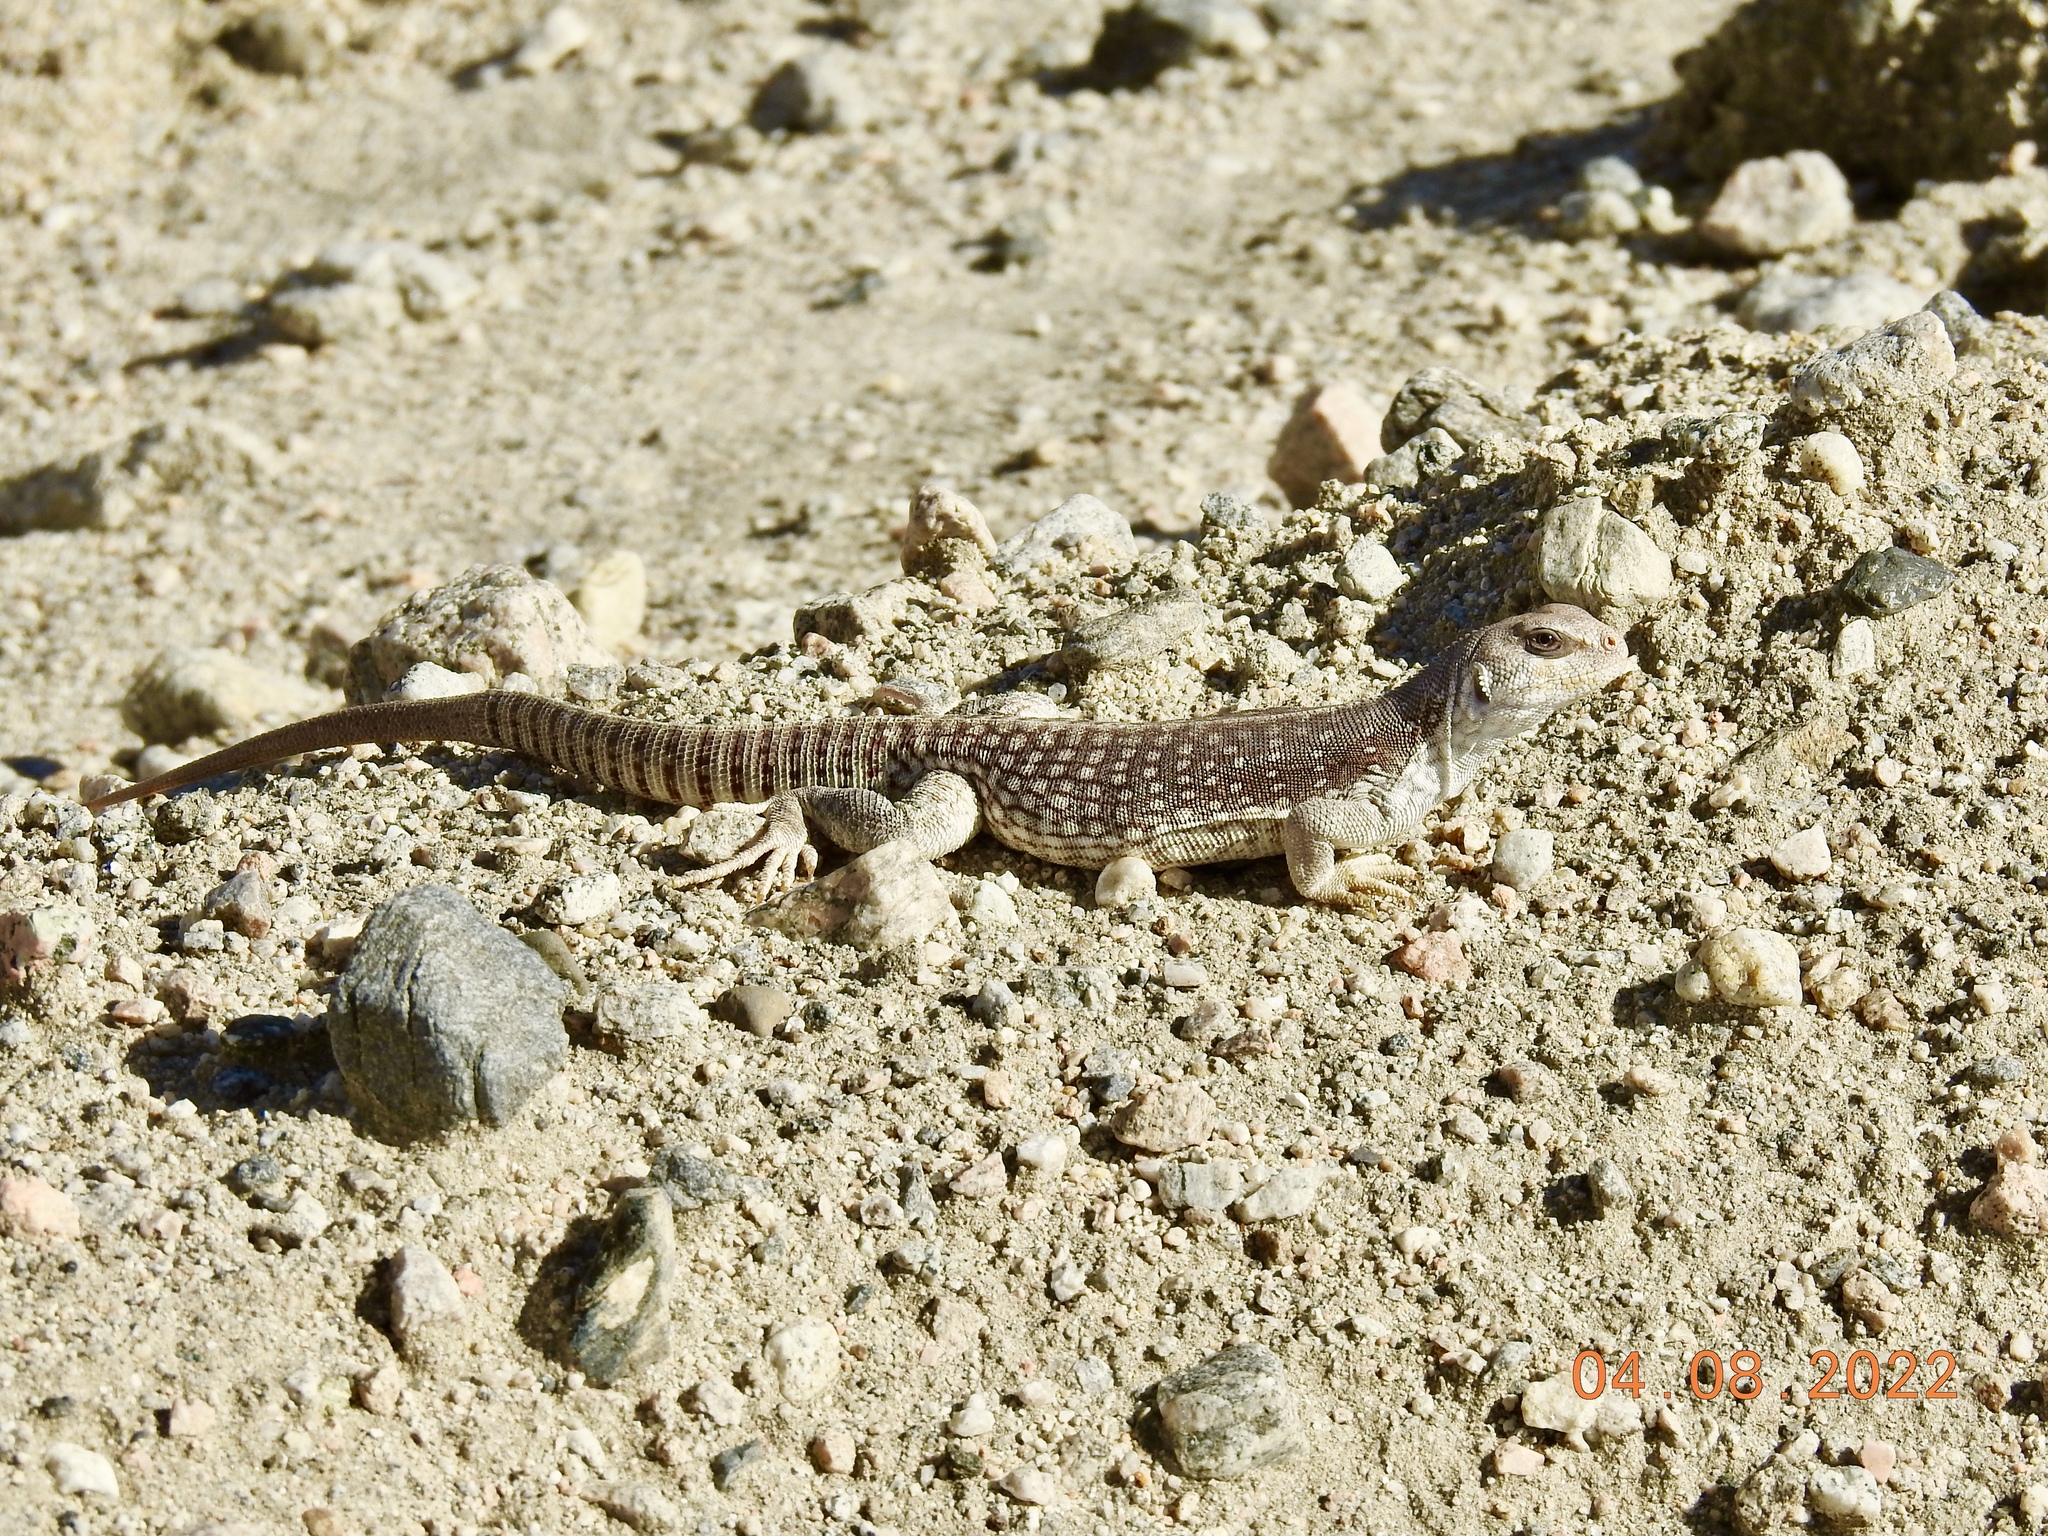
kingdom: Animalia
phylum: Chordata
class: Squamata
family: Iguanidae
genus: Dipsosaurus
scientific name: Dipsosaurus dorsalis
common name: Desert iguana
